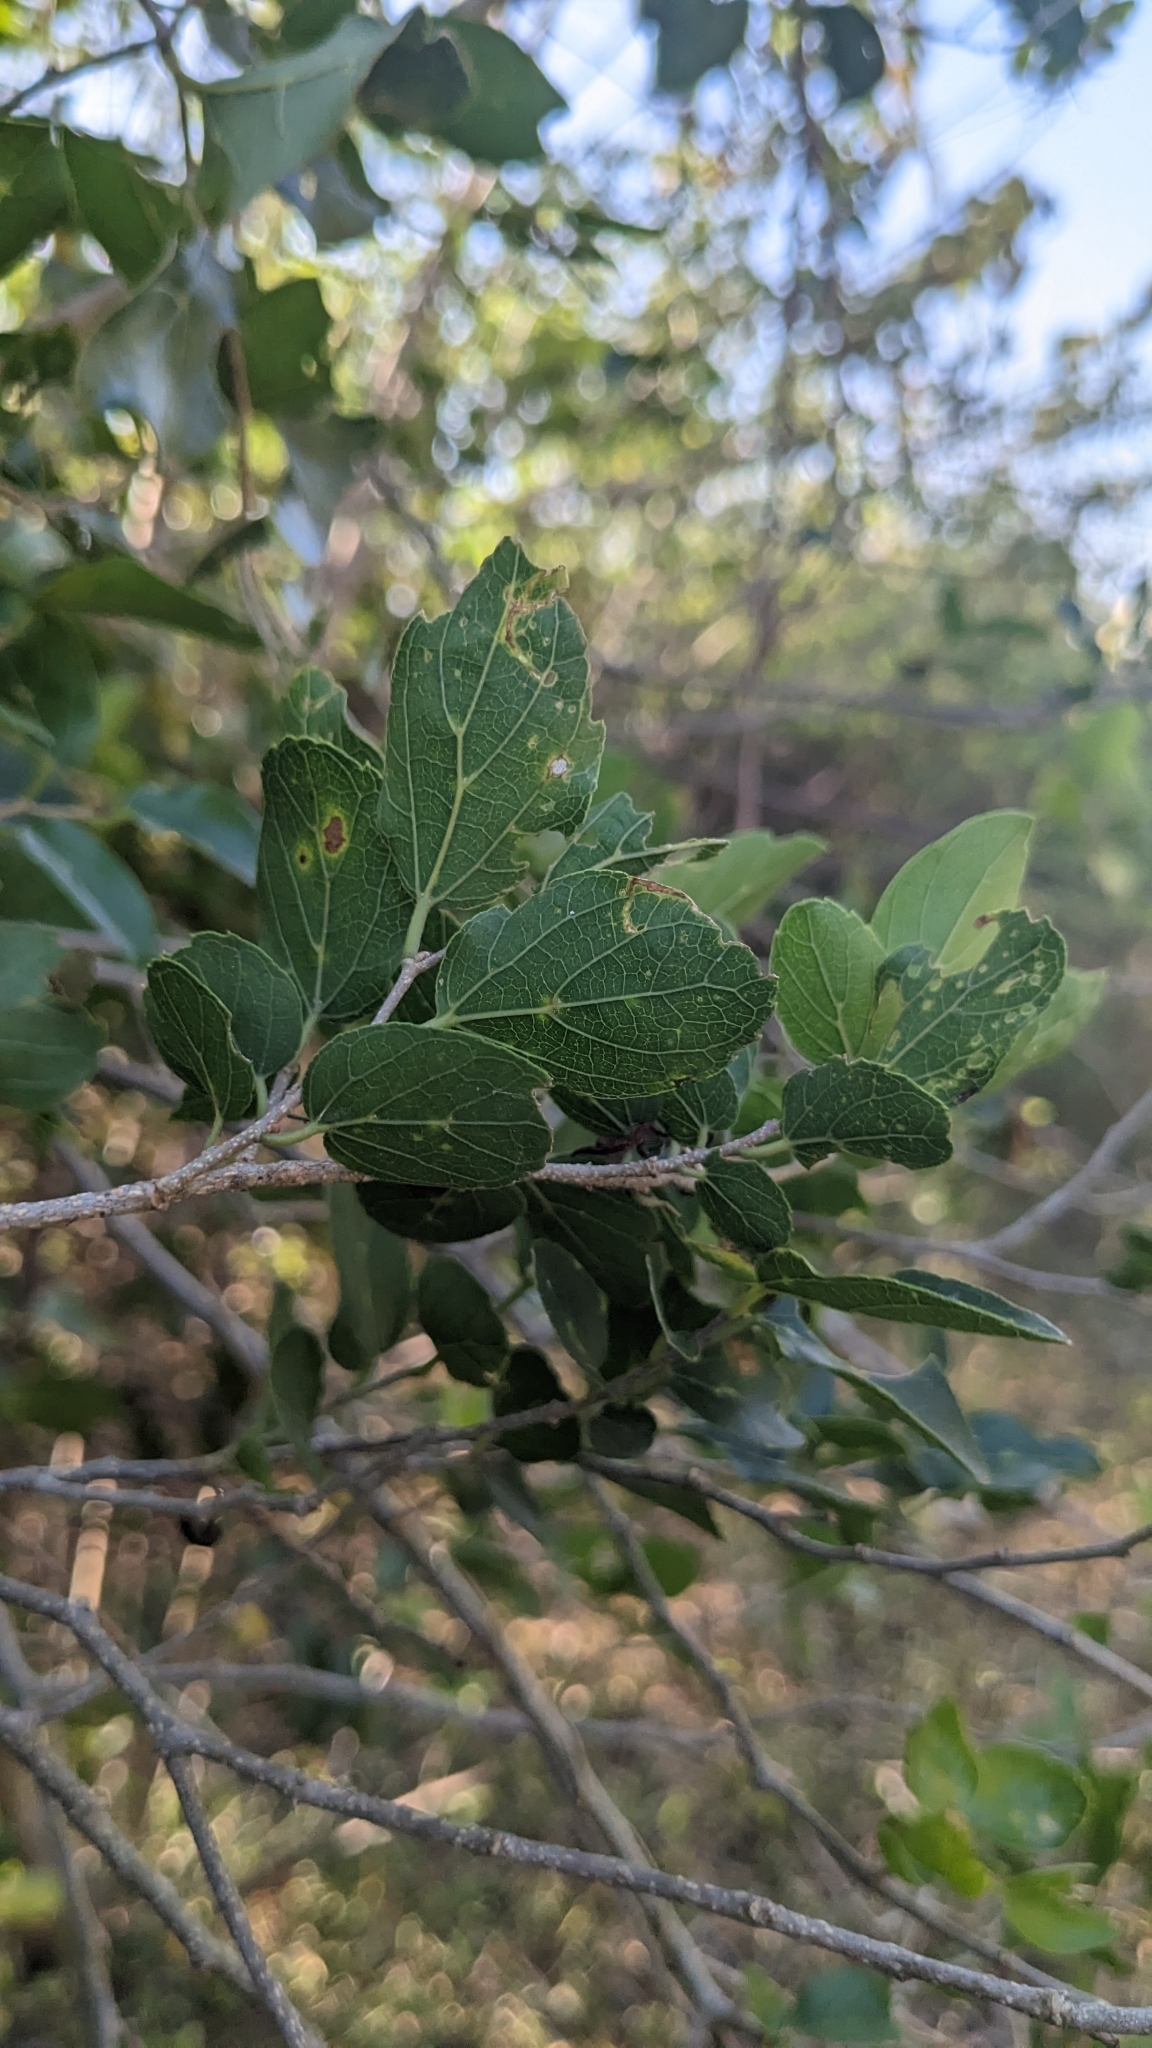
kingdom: Plantae
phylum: Tracheophyta
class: Magnoliopsida
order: Rosales
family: Cannabaceae
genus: Celtis
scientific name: Celtis sinensis
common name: Chinese hackberry
